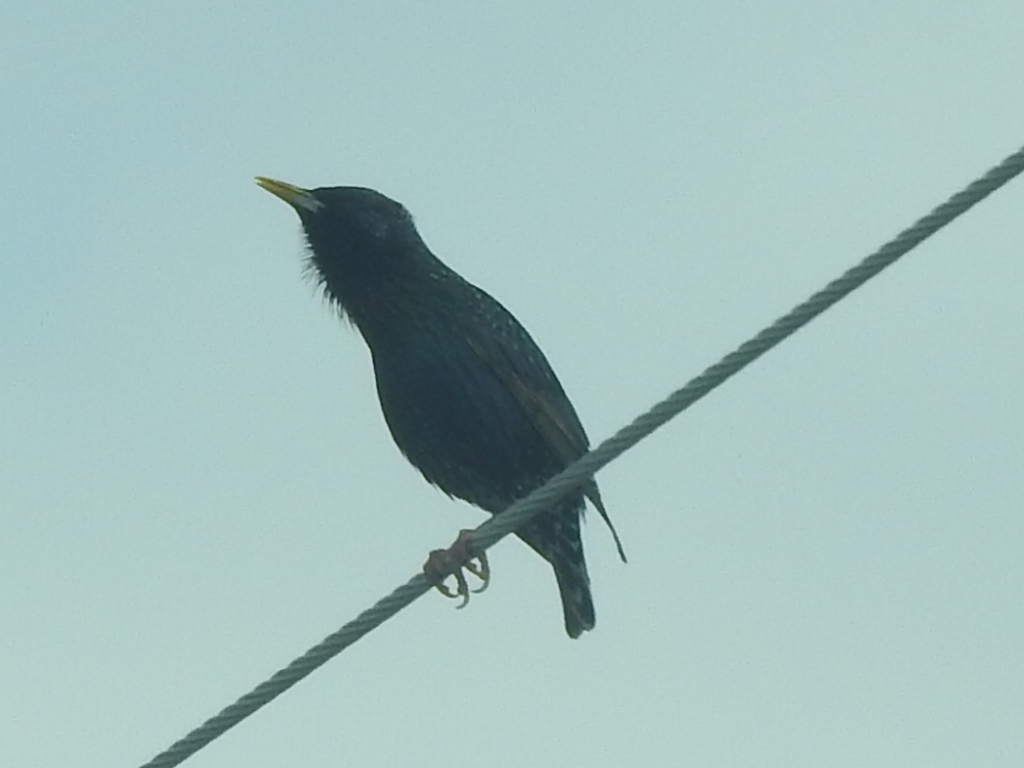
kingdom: Animalia
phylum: Chordata
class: Aves
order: Passeriformes
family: Sturnidae
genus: Sturnus
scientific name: Sturnus vulgaris
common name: Common starling
